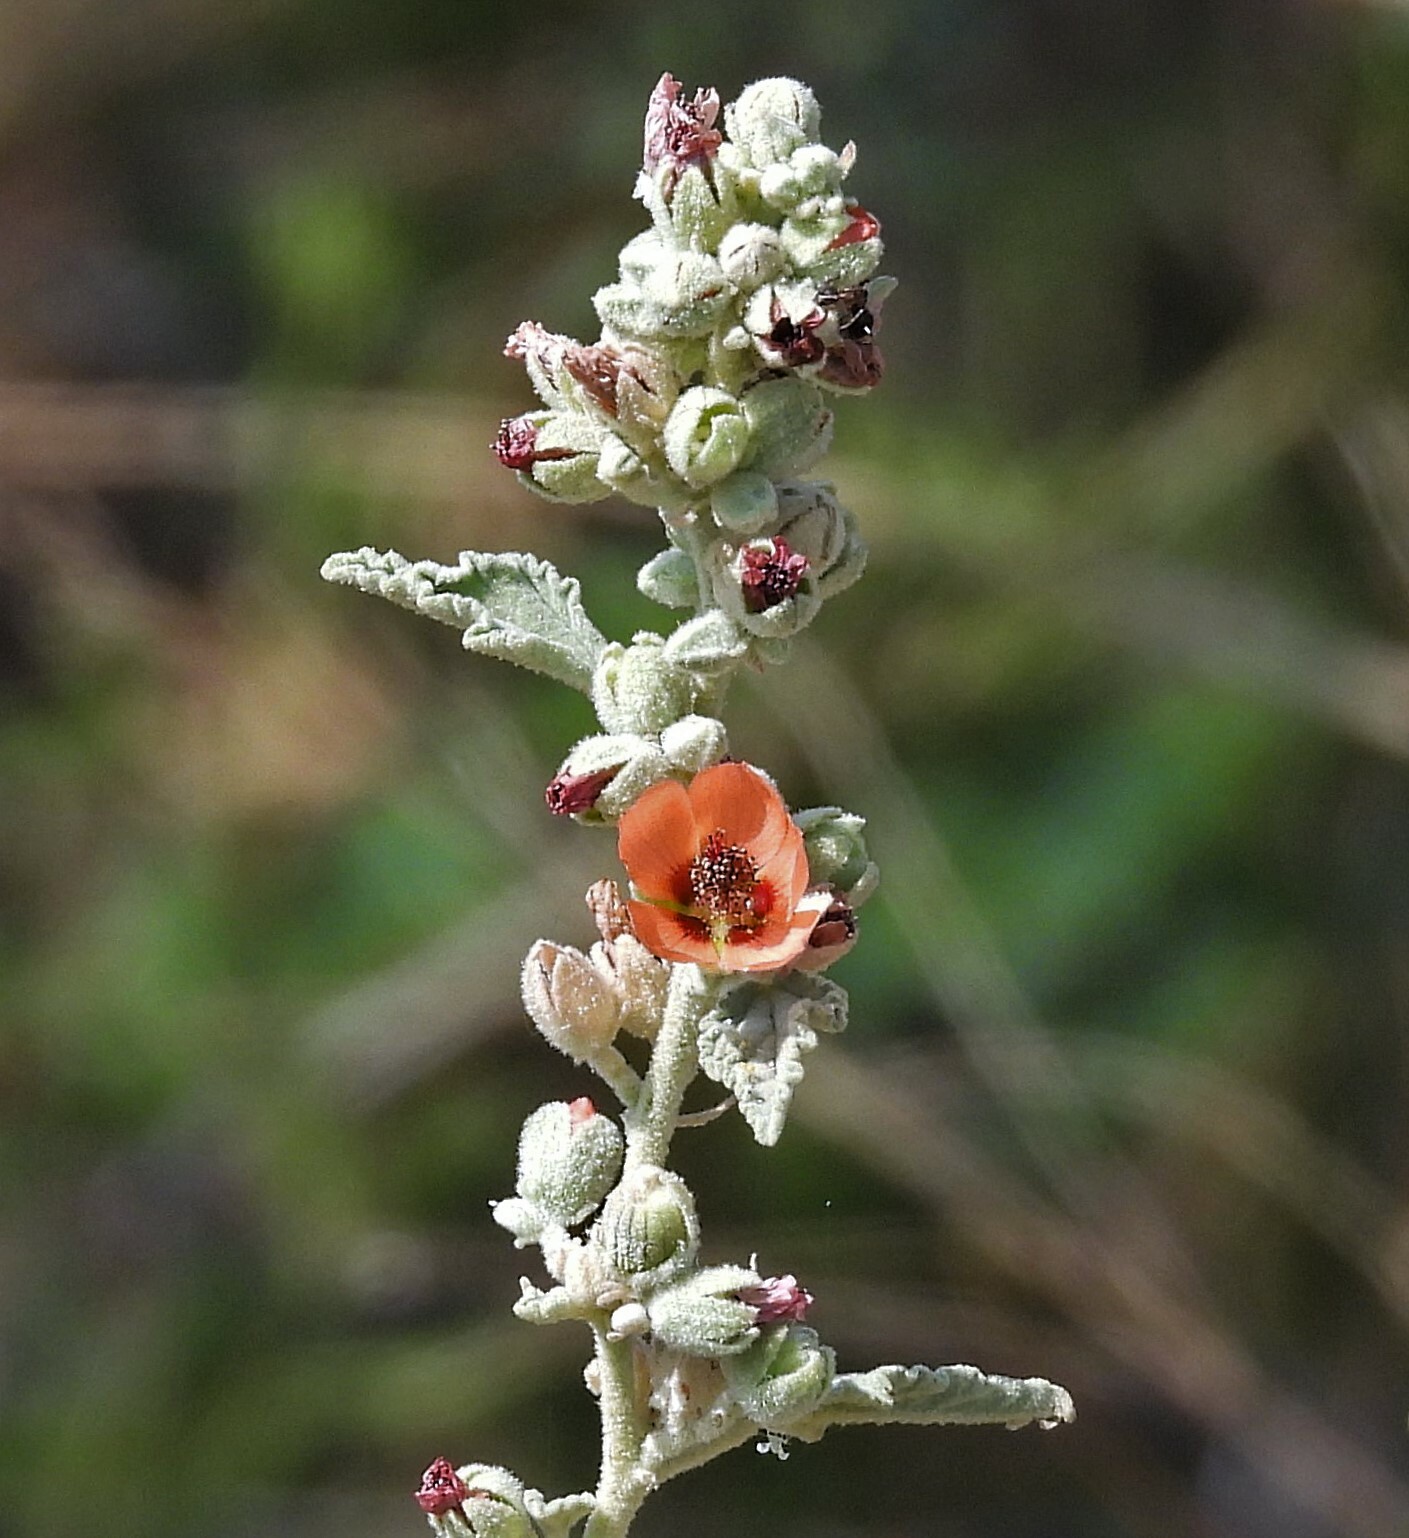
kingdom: Plantae
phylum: Tracheophyta
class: Magnoliopsida
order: Malvales
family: Malvaceae
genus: Sphaeralcea
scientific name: Sphaeralcea bonariensis
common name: Latin globemallow
